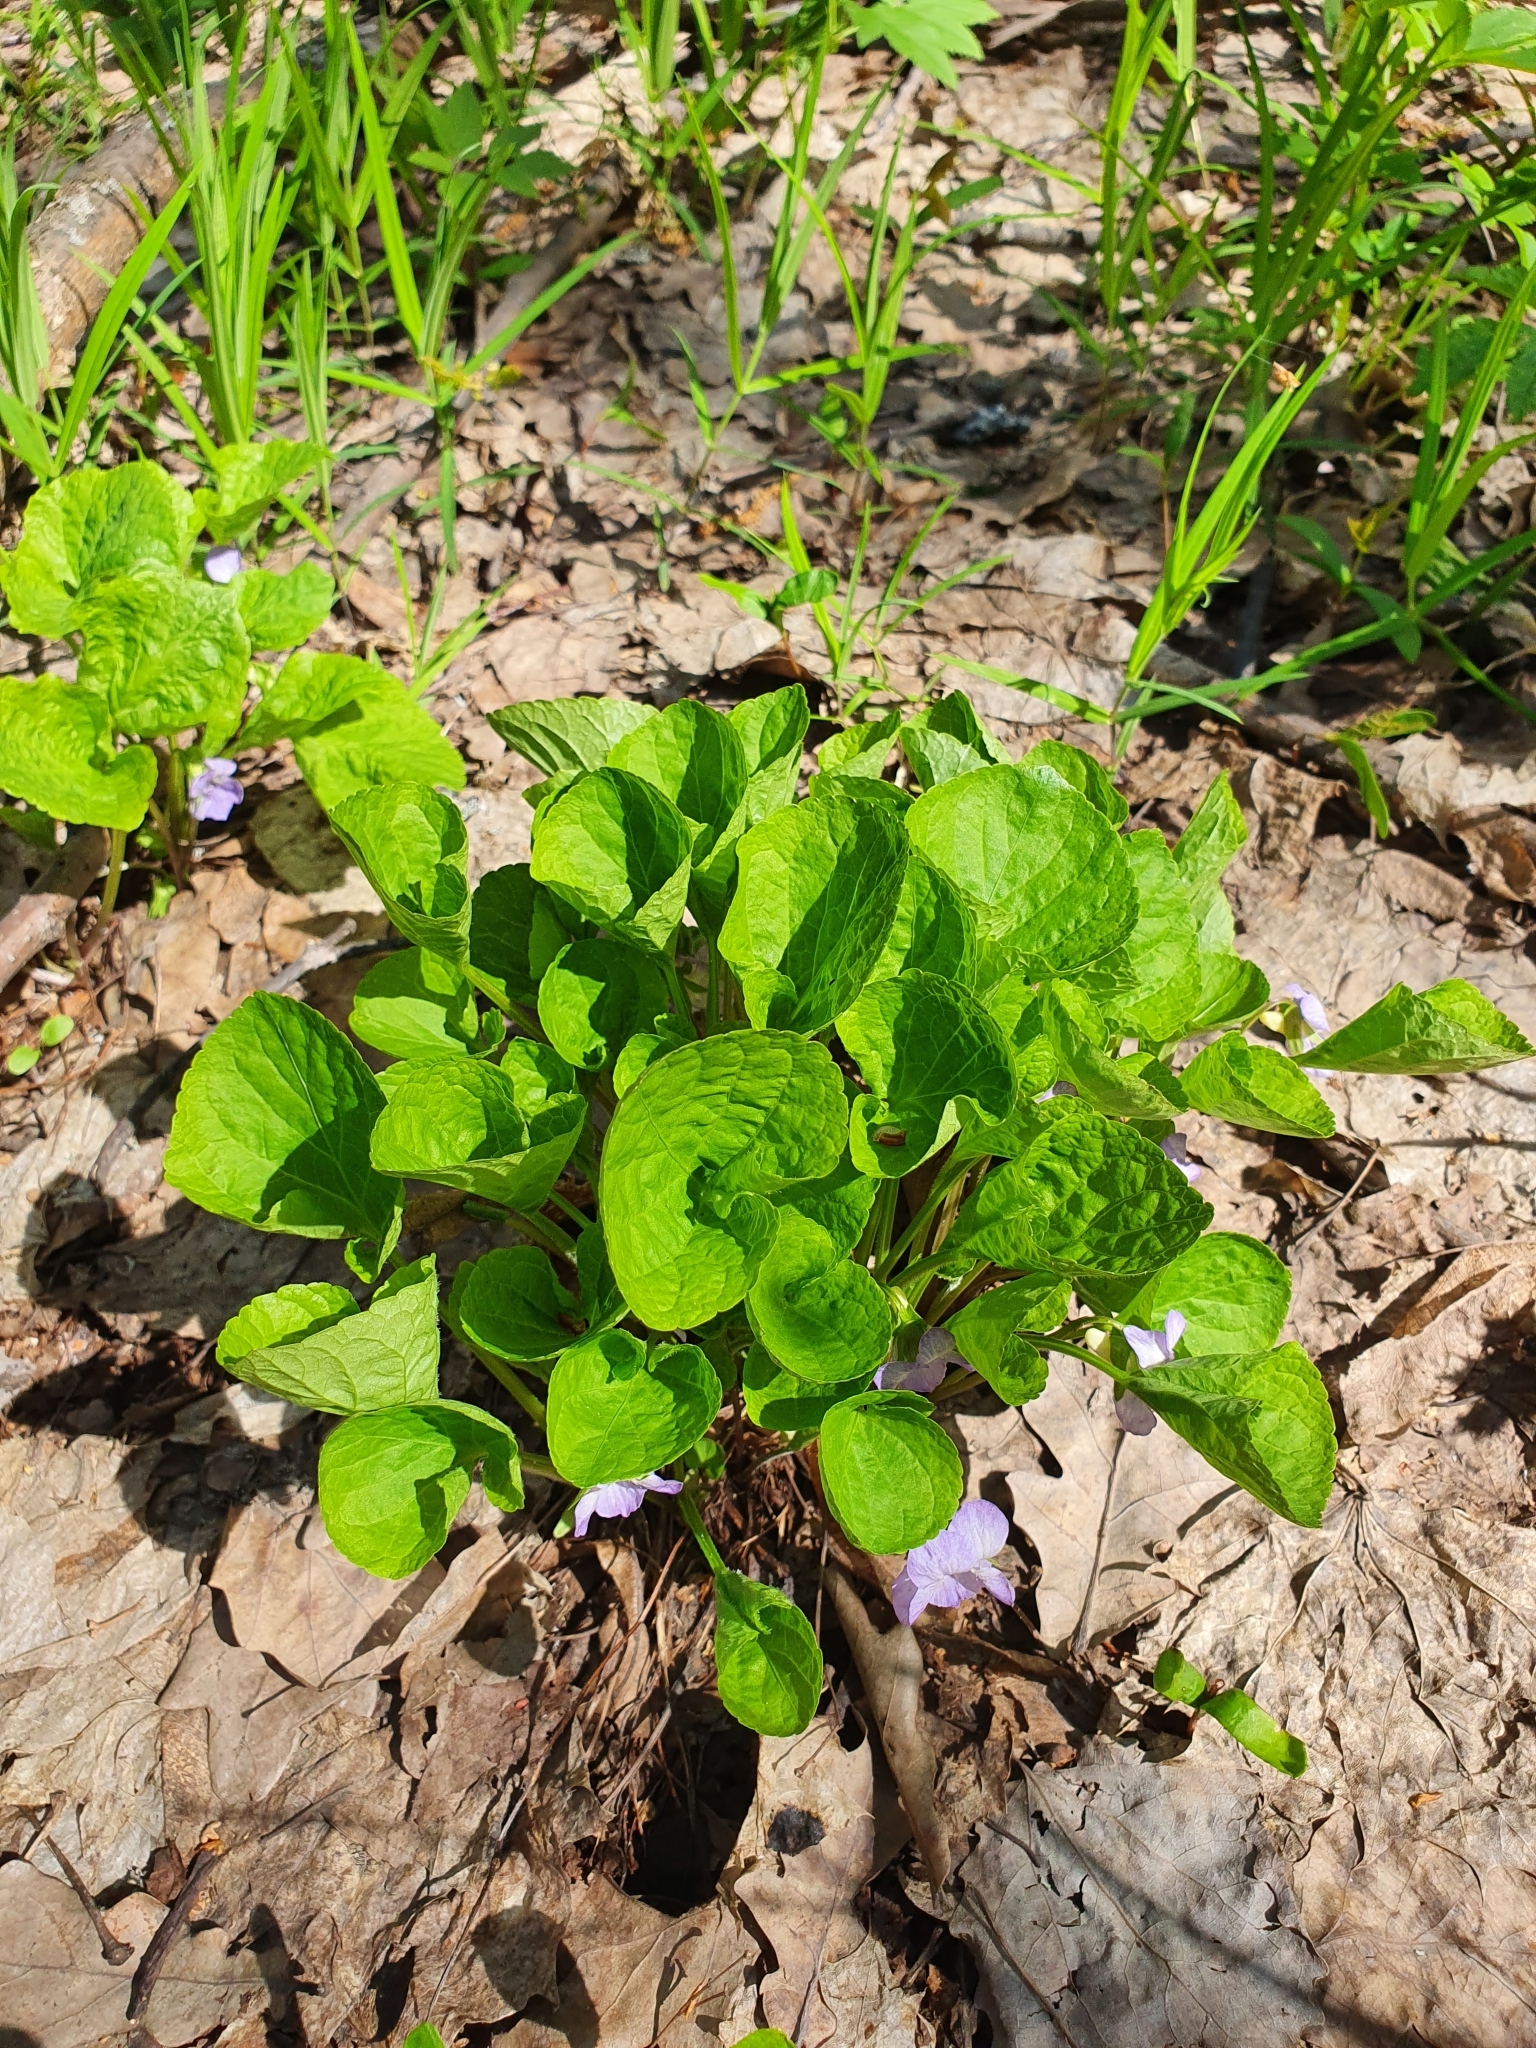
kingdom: Plantae
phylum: Tracheophyta
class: Magnoliopsida
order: Malpighiales
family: Violaceae
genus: Viola
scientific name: Viola mirabilis
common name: Wonder violet
